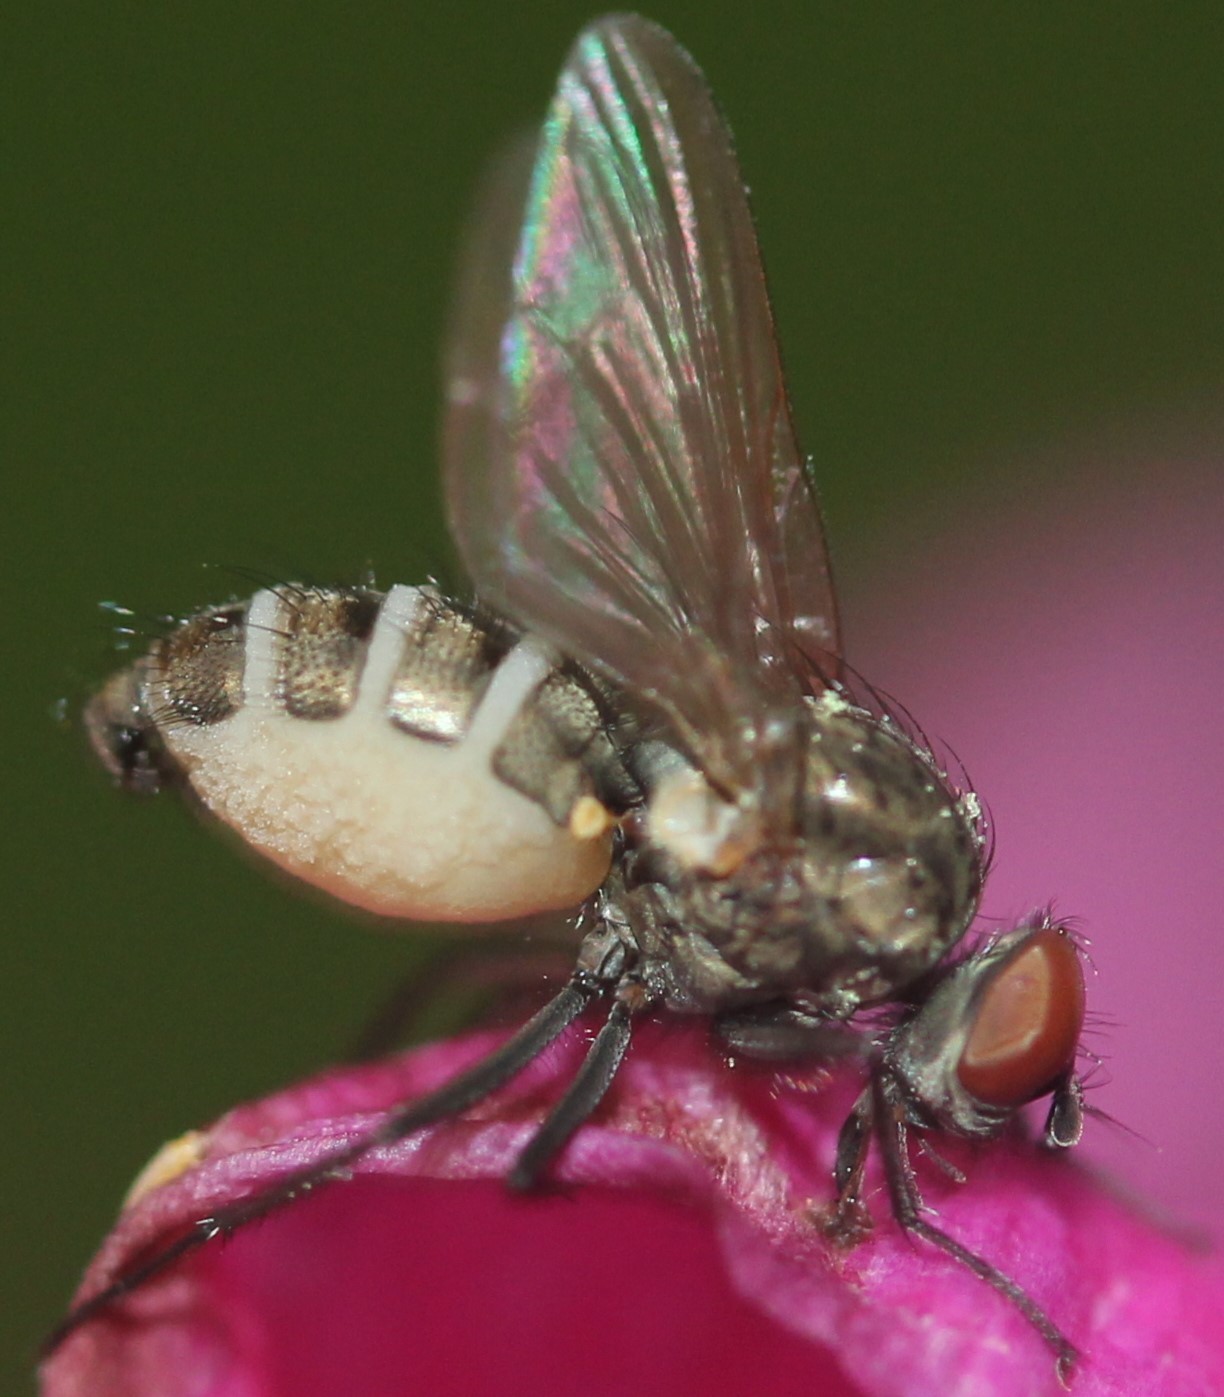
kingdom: Fungi
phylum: Entomophthoromycota
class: Entomophthoromycetes
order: Entomophthorales
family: Entomophthoraceae
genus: Entomophthora
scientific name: Entomophthora
